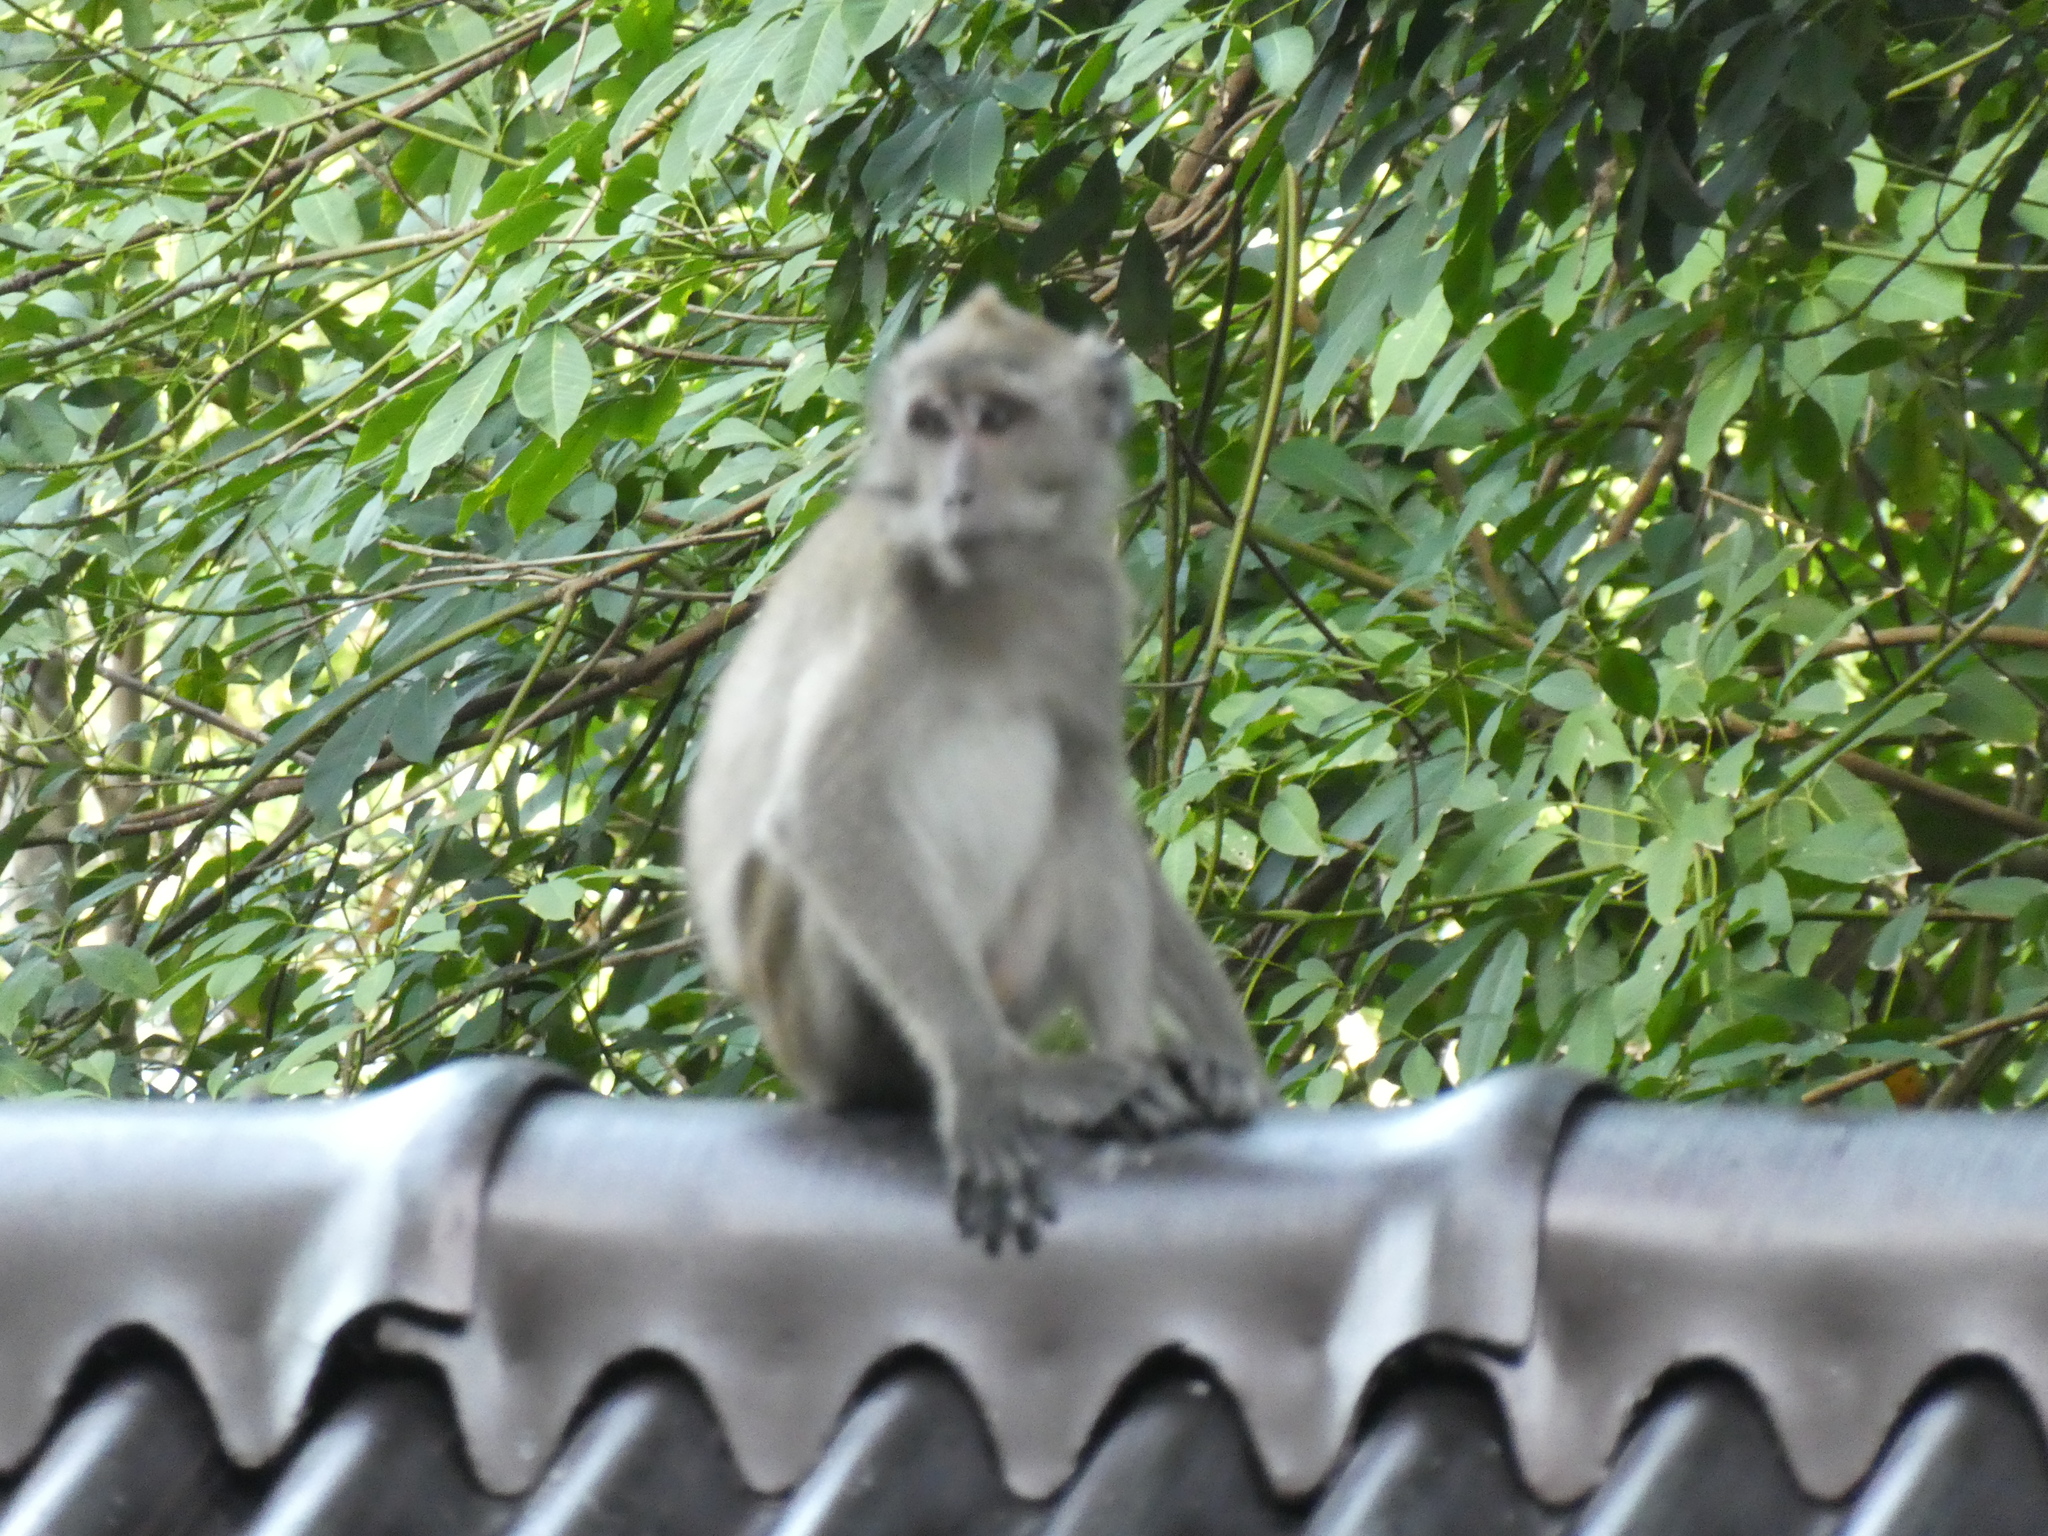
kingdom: Animalia
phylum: Chordata
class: Mammalia
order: Primates
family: Cercopithecidae
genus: Macaca
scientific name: Macaca fascicularis
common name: Crab-eating macaque
